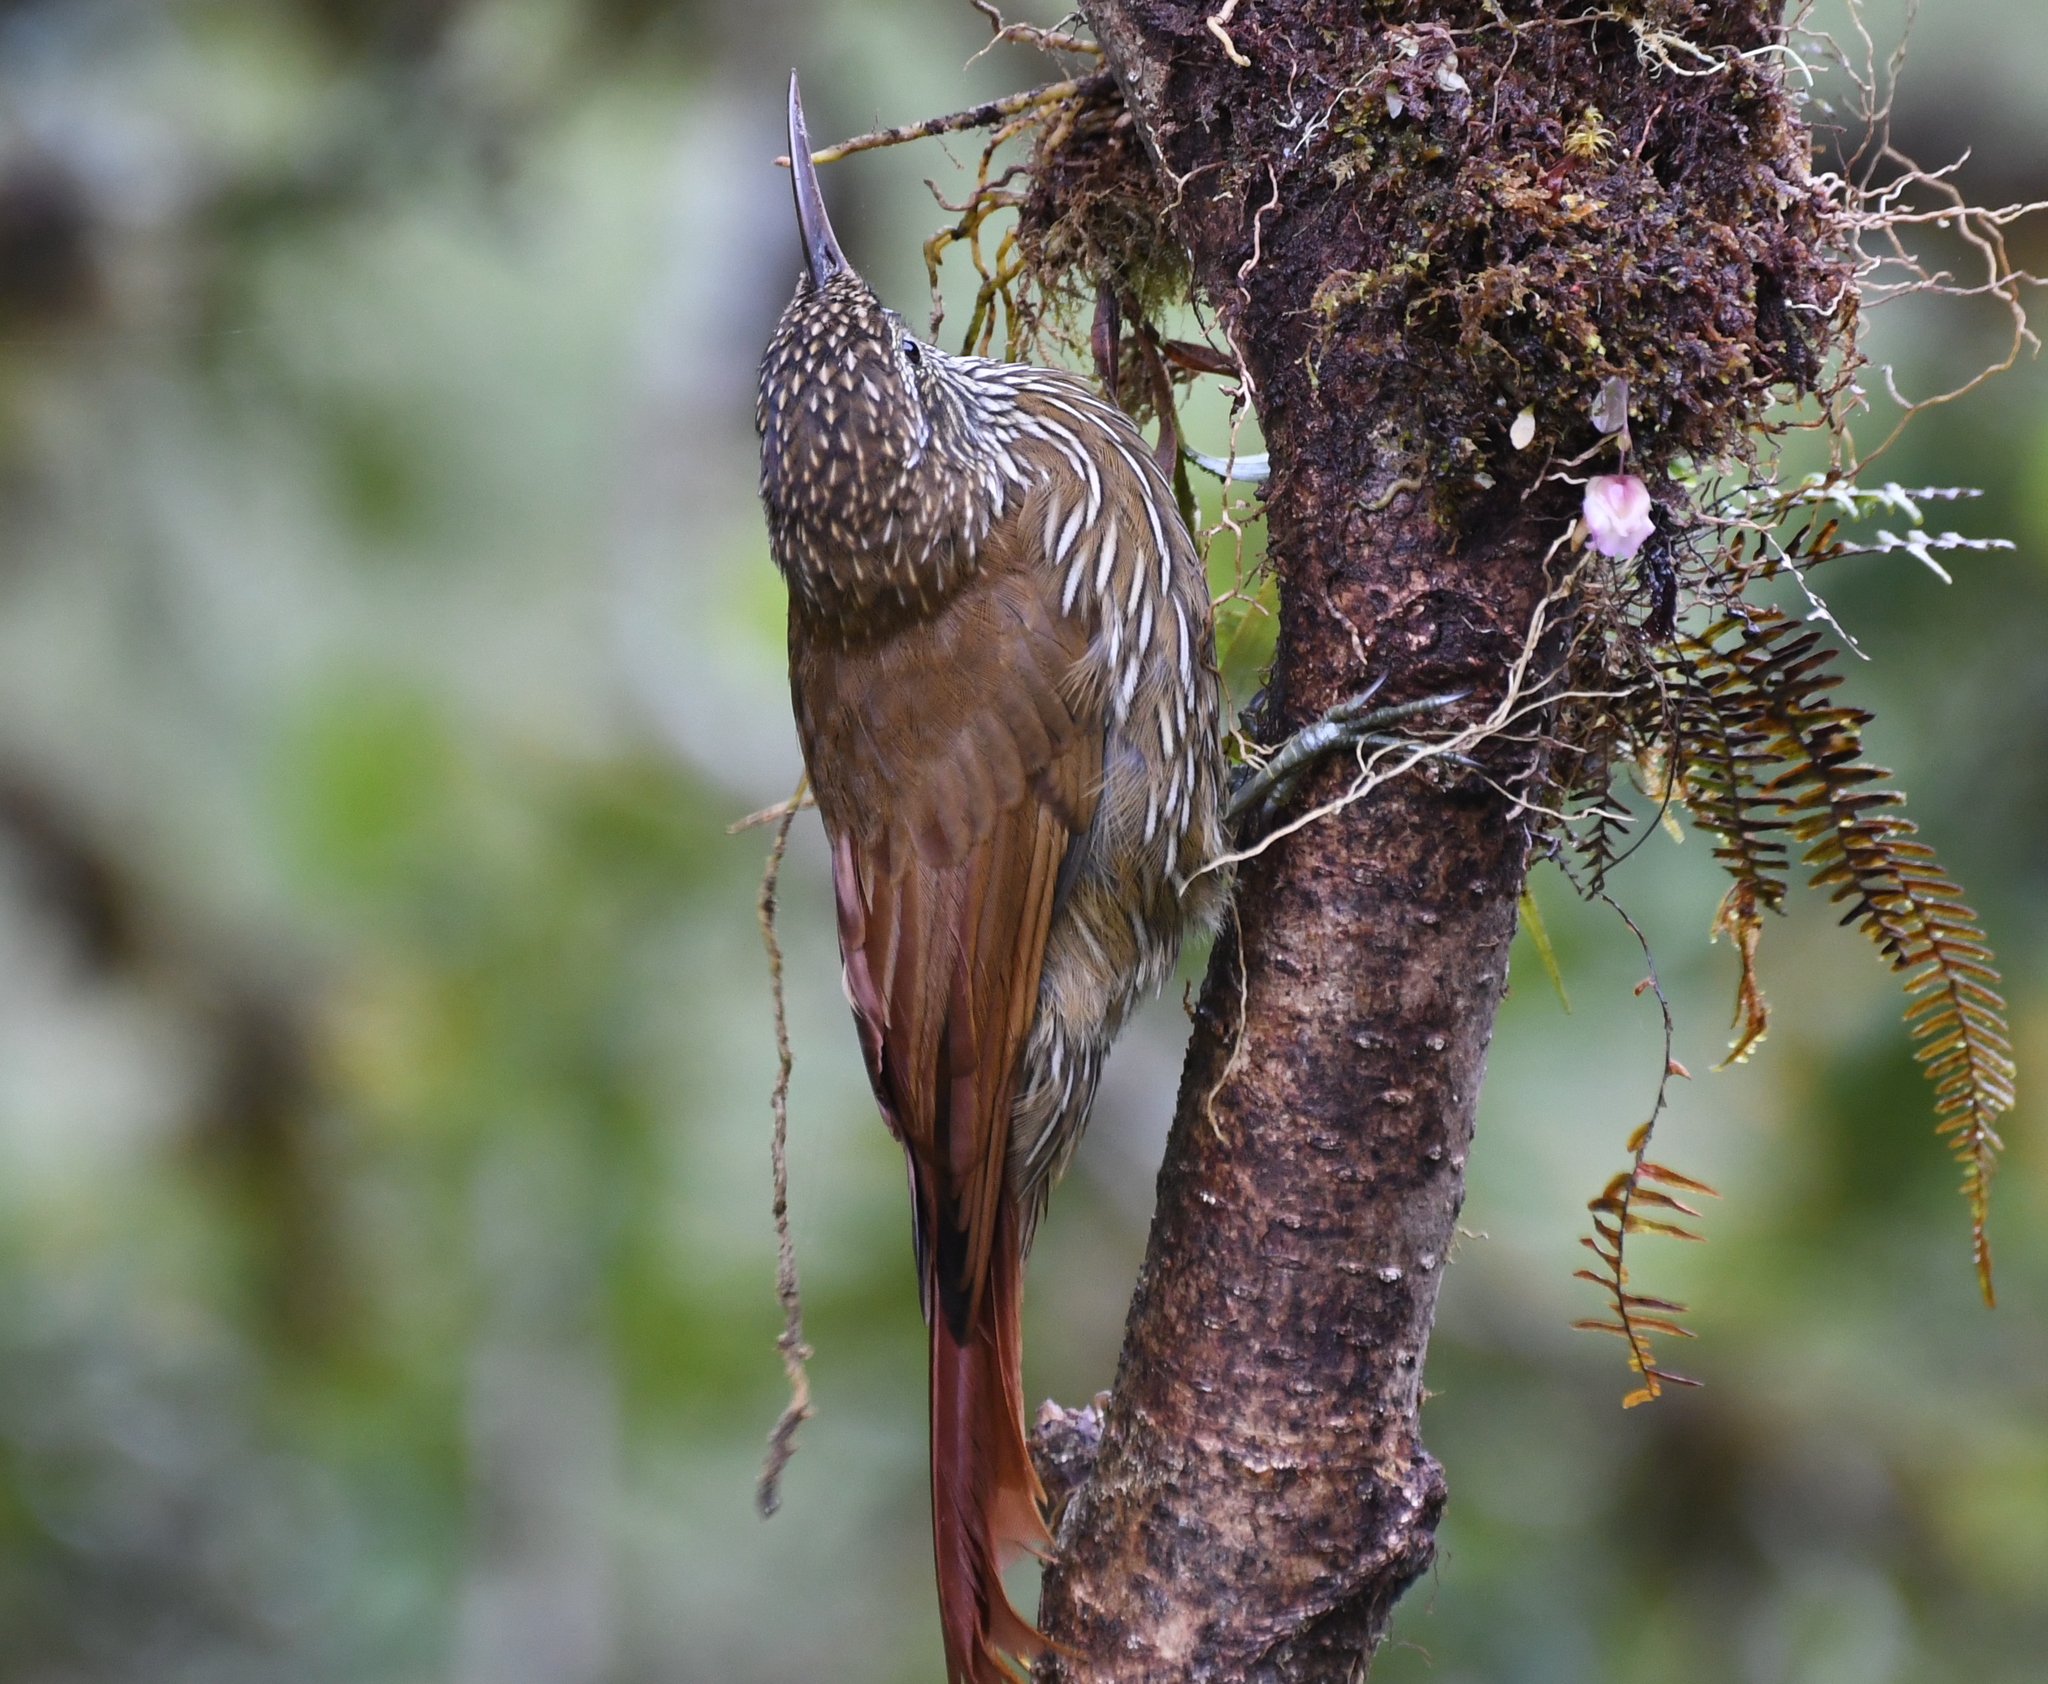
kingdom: Animalia
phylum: Chordata
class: Aves
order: Passeriformes
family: Furnariidae
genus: Lepidocolaptes
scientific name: Lepidocolaptes lacrymiger
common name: Montane woodcreeper
